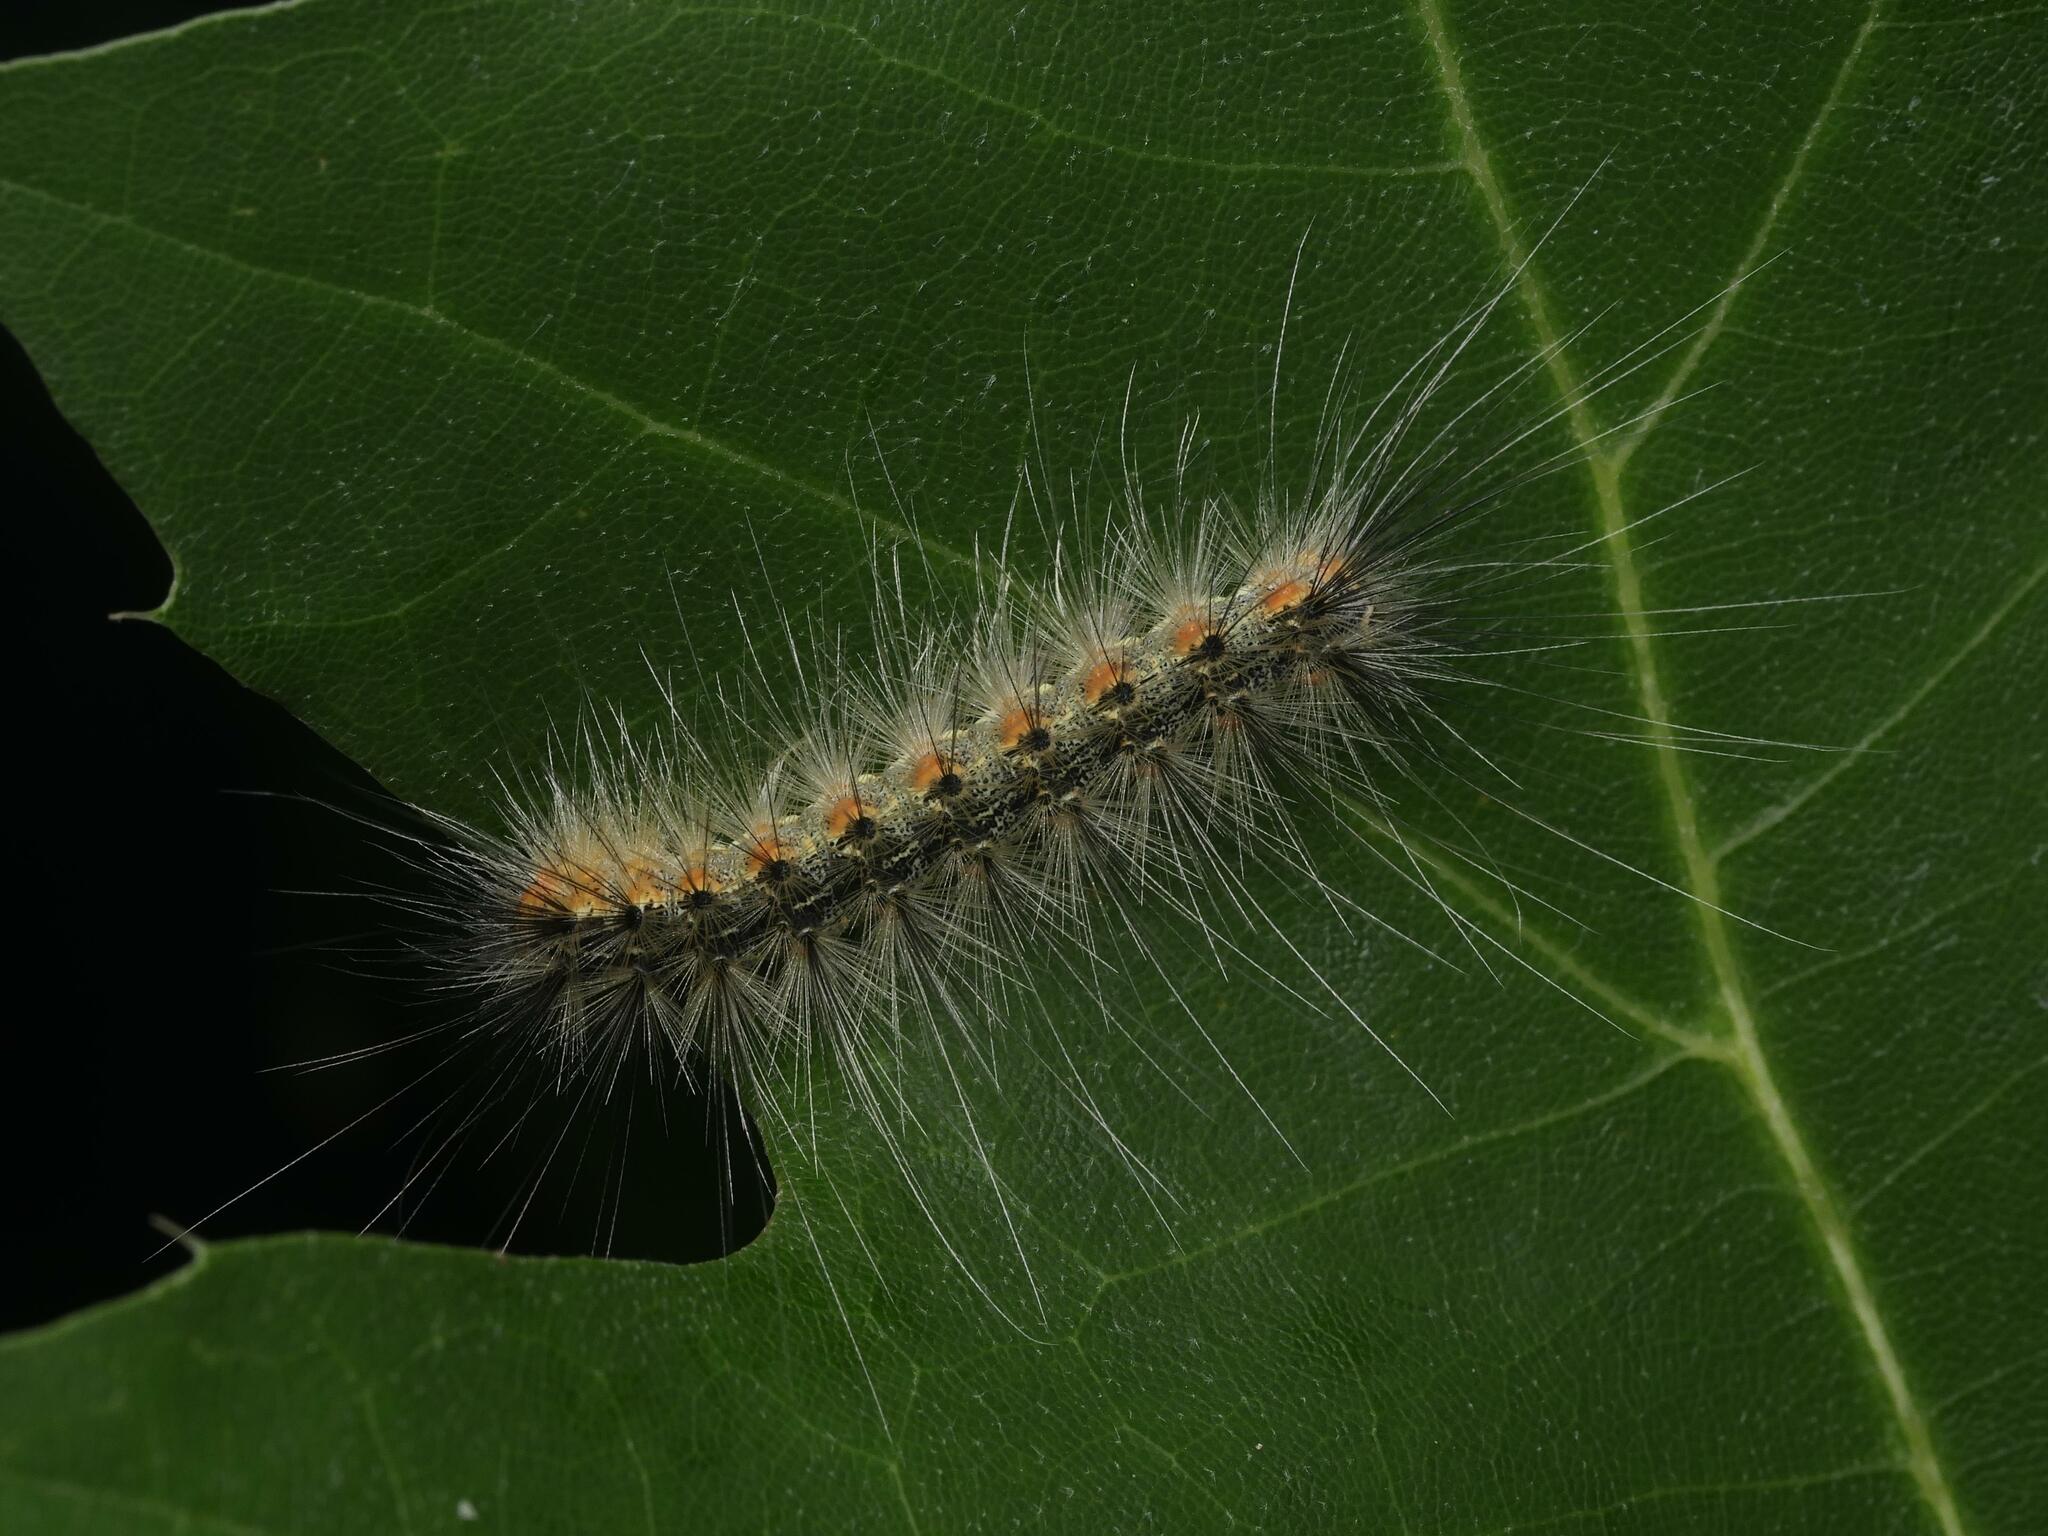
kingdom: Animalia
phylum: Arthropoda
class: Insecta
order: Lepidoptera
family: Erebidae
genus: Hyphantria
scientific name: Hyphantria cunea
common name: American white moth
